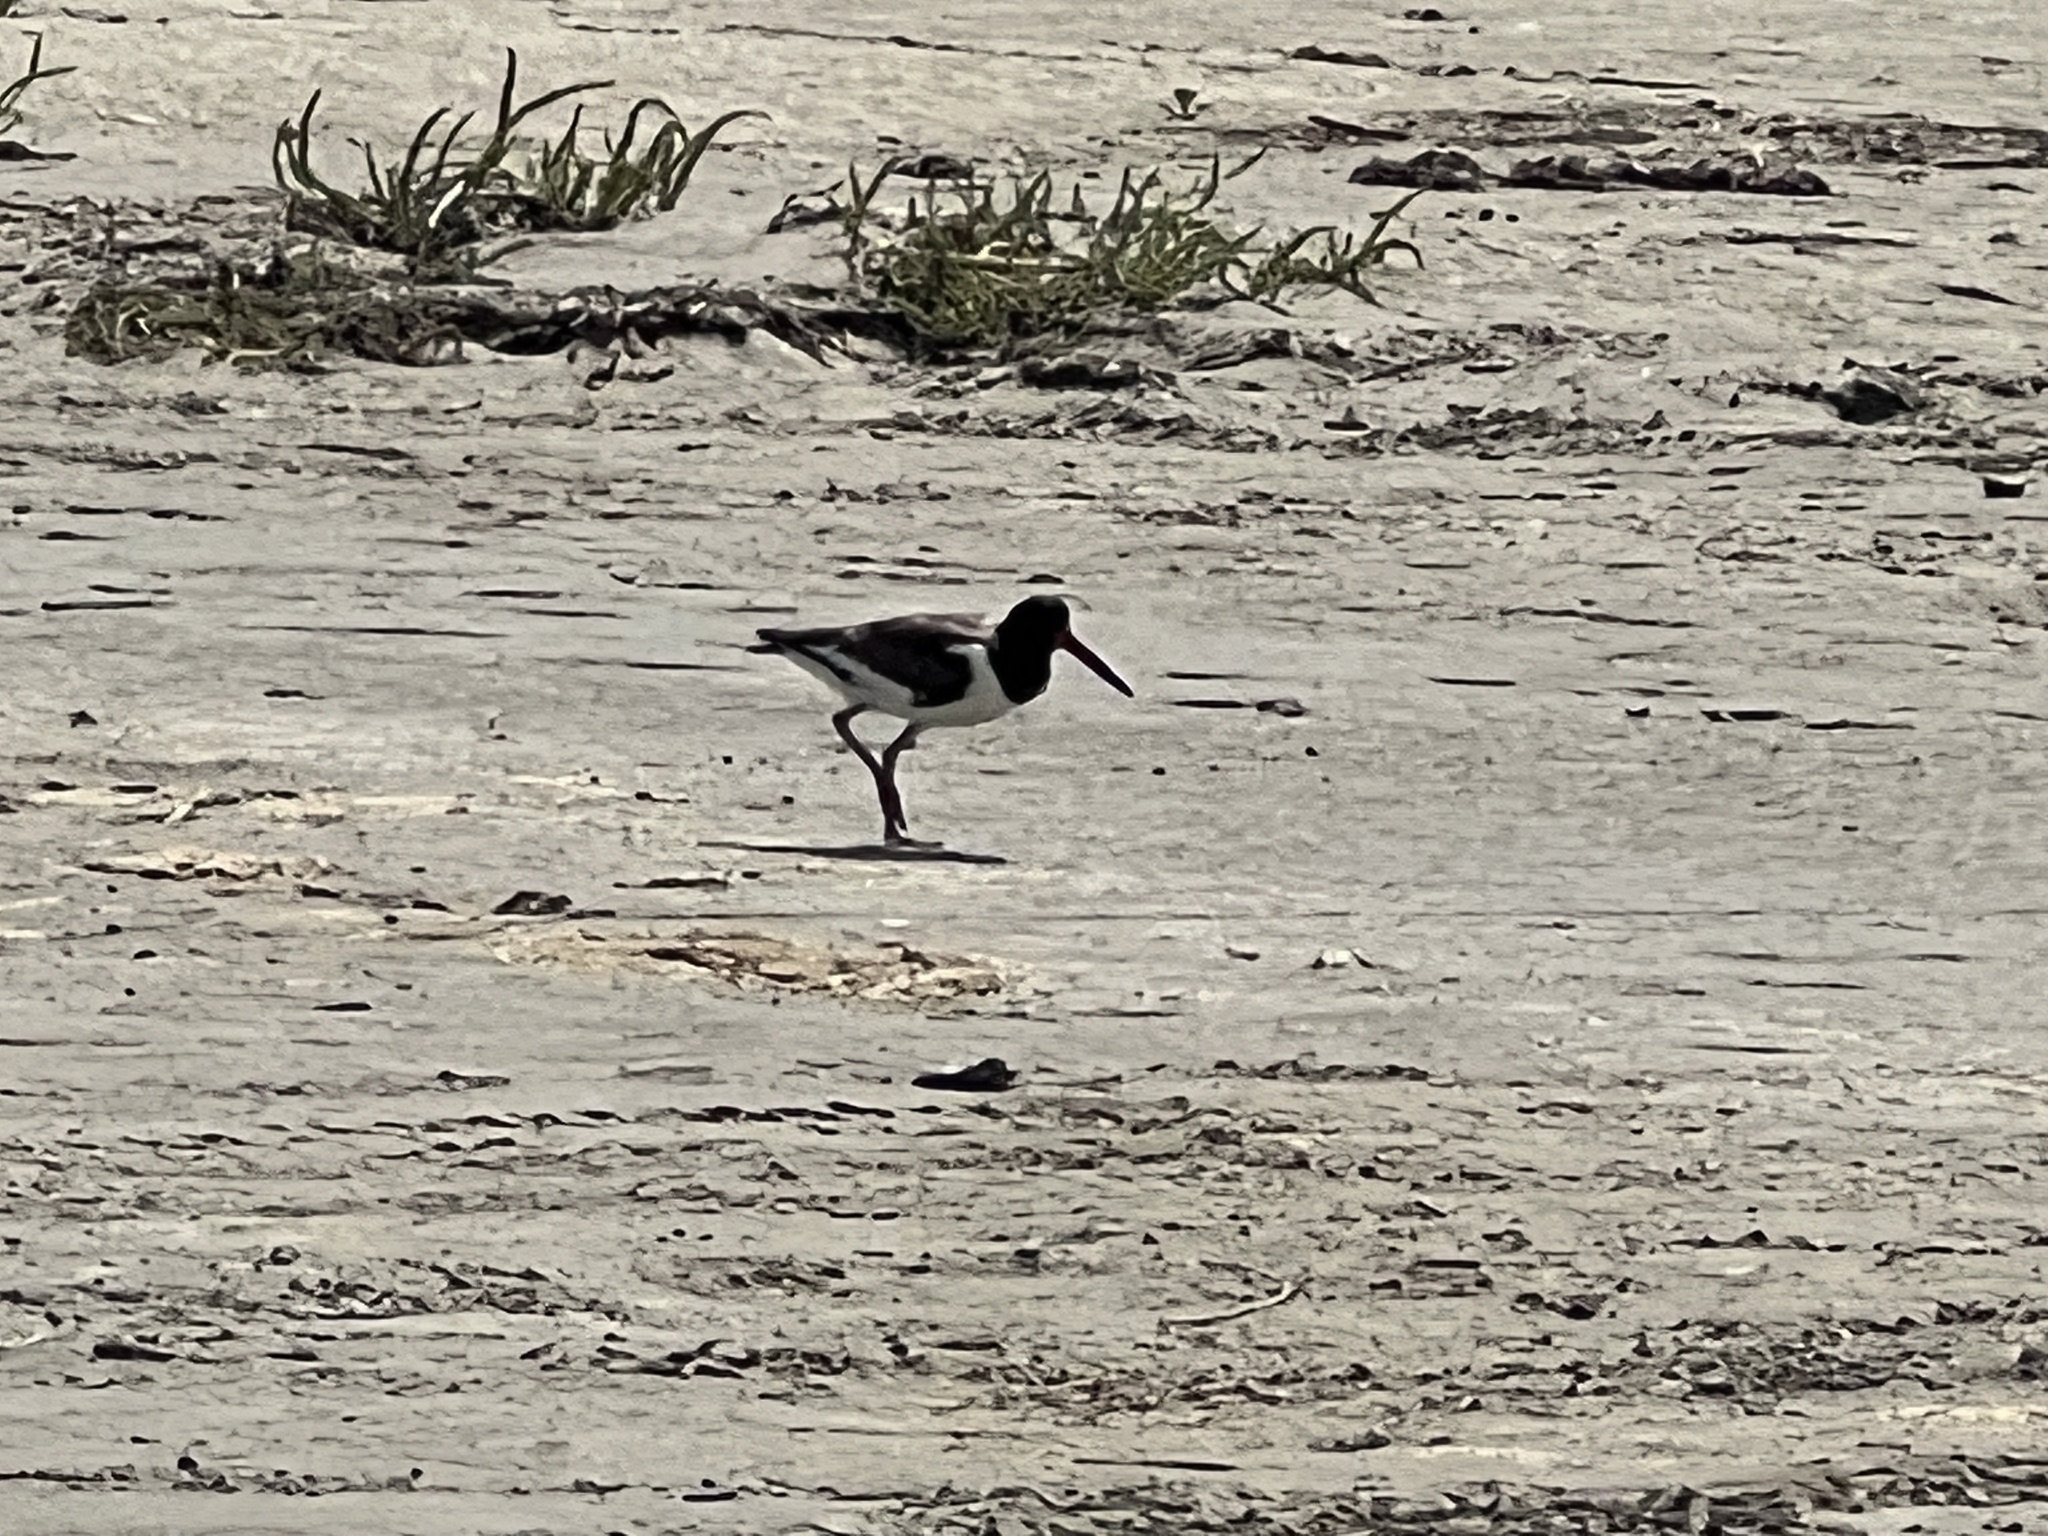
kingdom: Animalia
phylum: Chordata
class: Aves
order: Charadriiformes
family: Haematopodidae
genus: Haematopus
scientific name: Haematopus palliatus
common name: American oystercatcher
